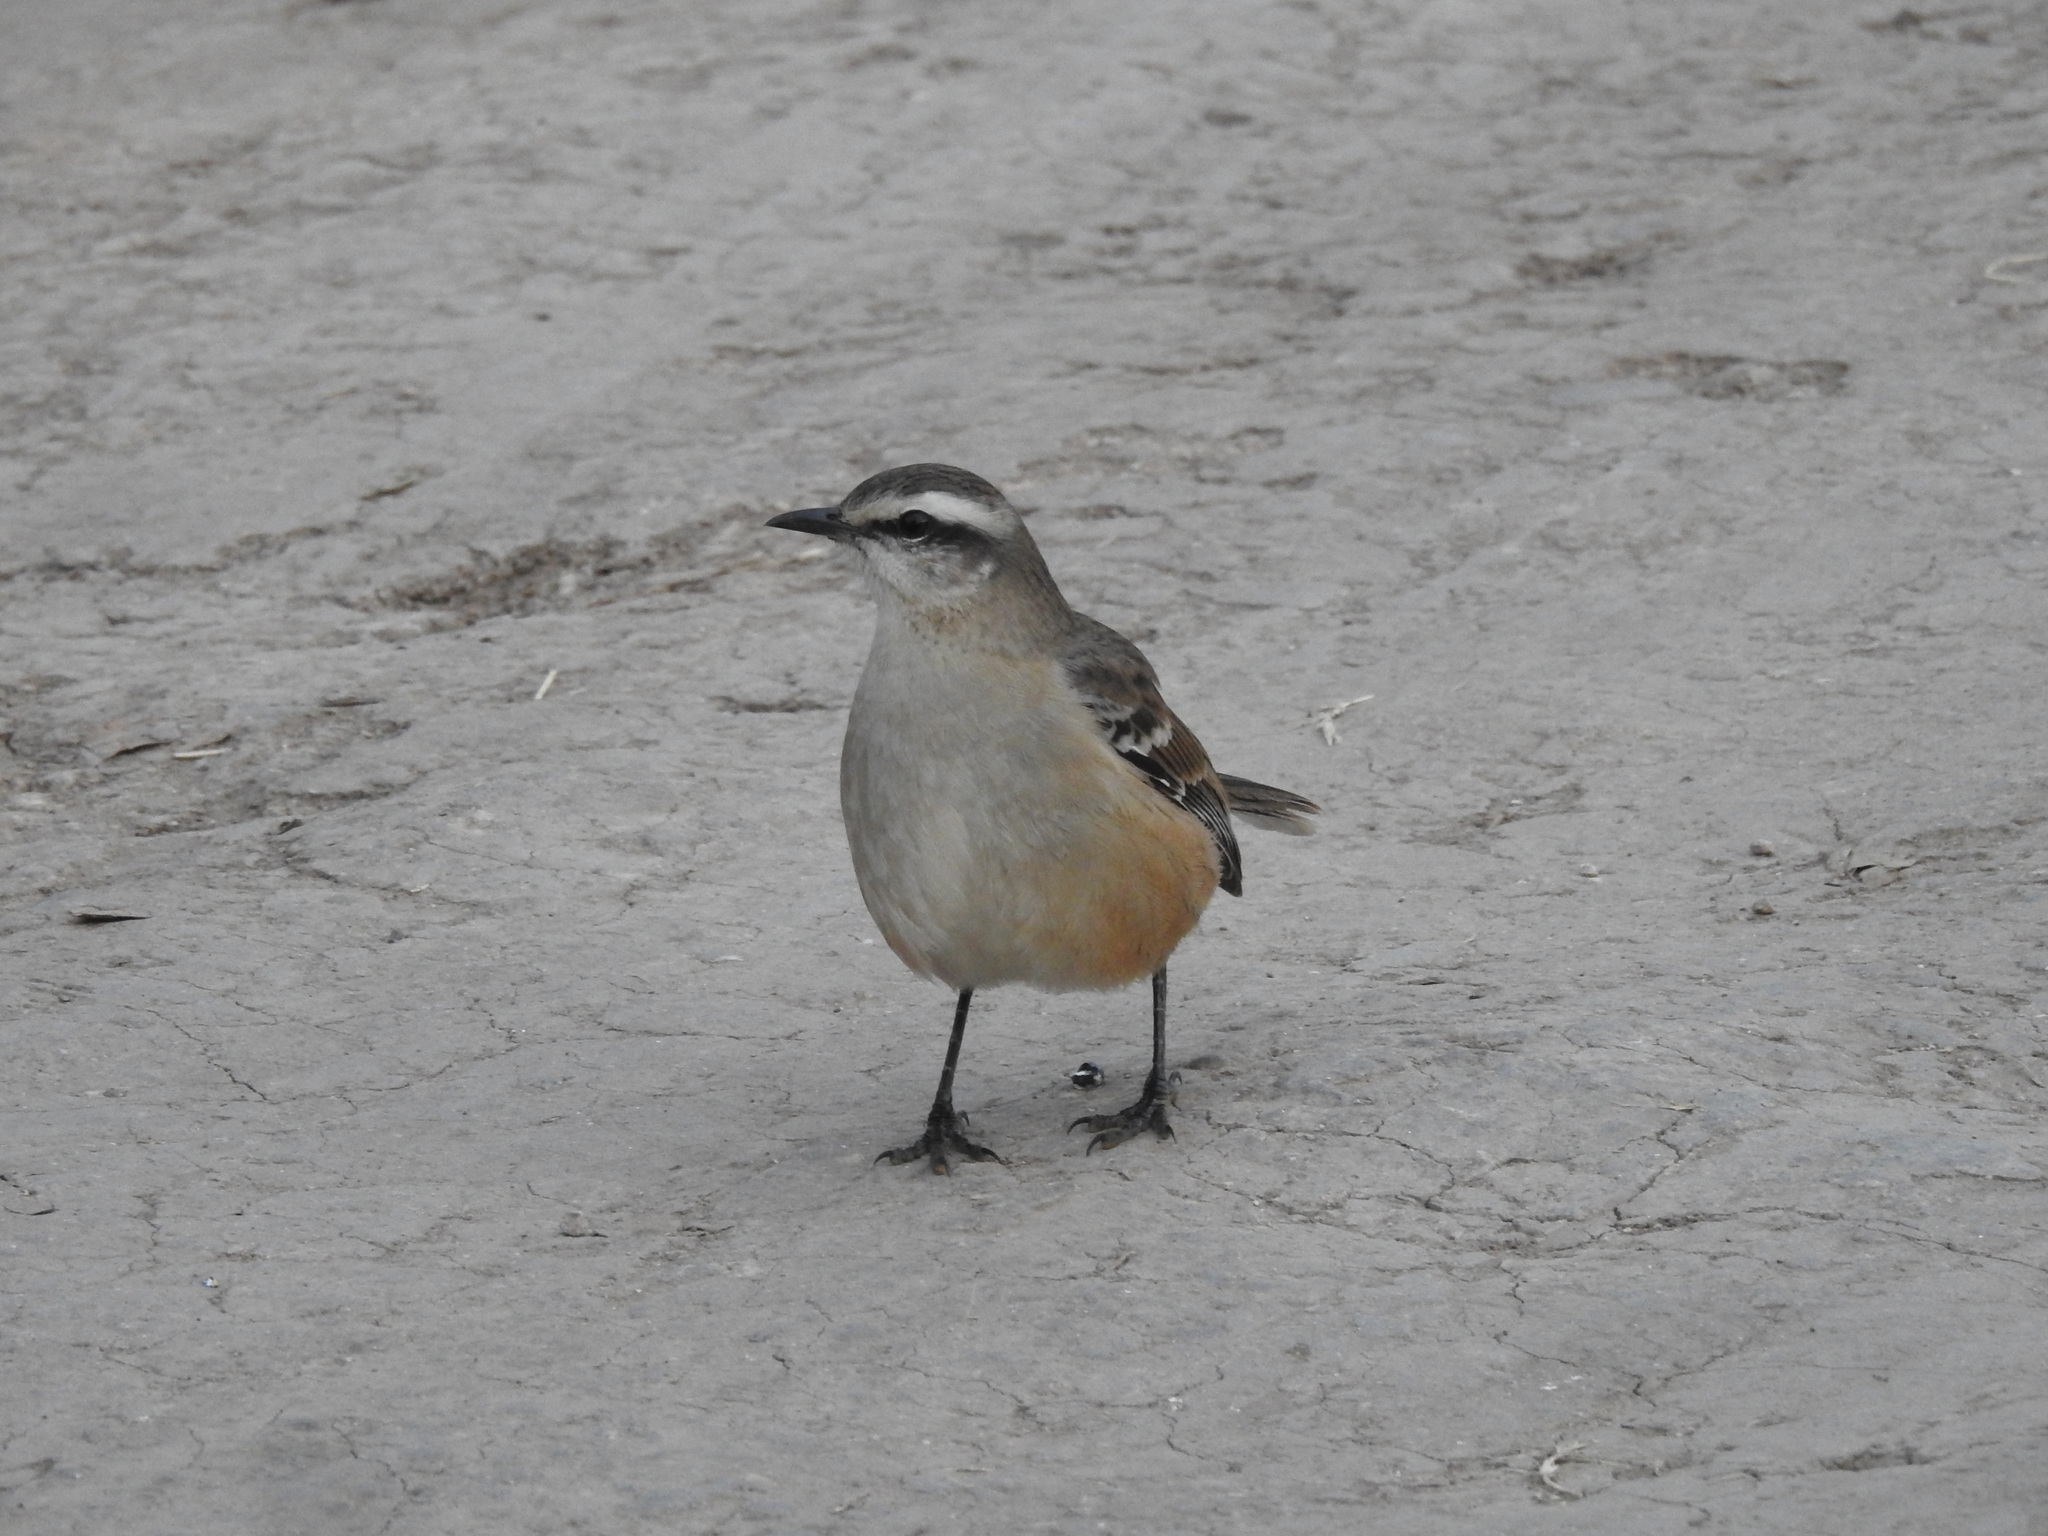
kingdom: Animalia
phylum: Chordata
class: Aves
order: Passeriformes
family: Mimidae
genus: Mimus
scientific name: Mimus saturninus
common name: Chalk-browed mockingbird
